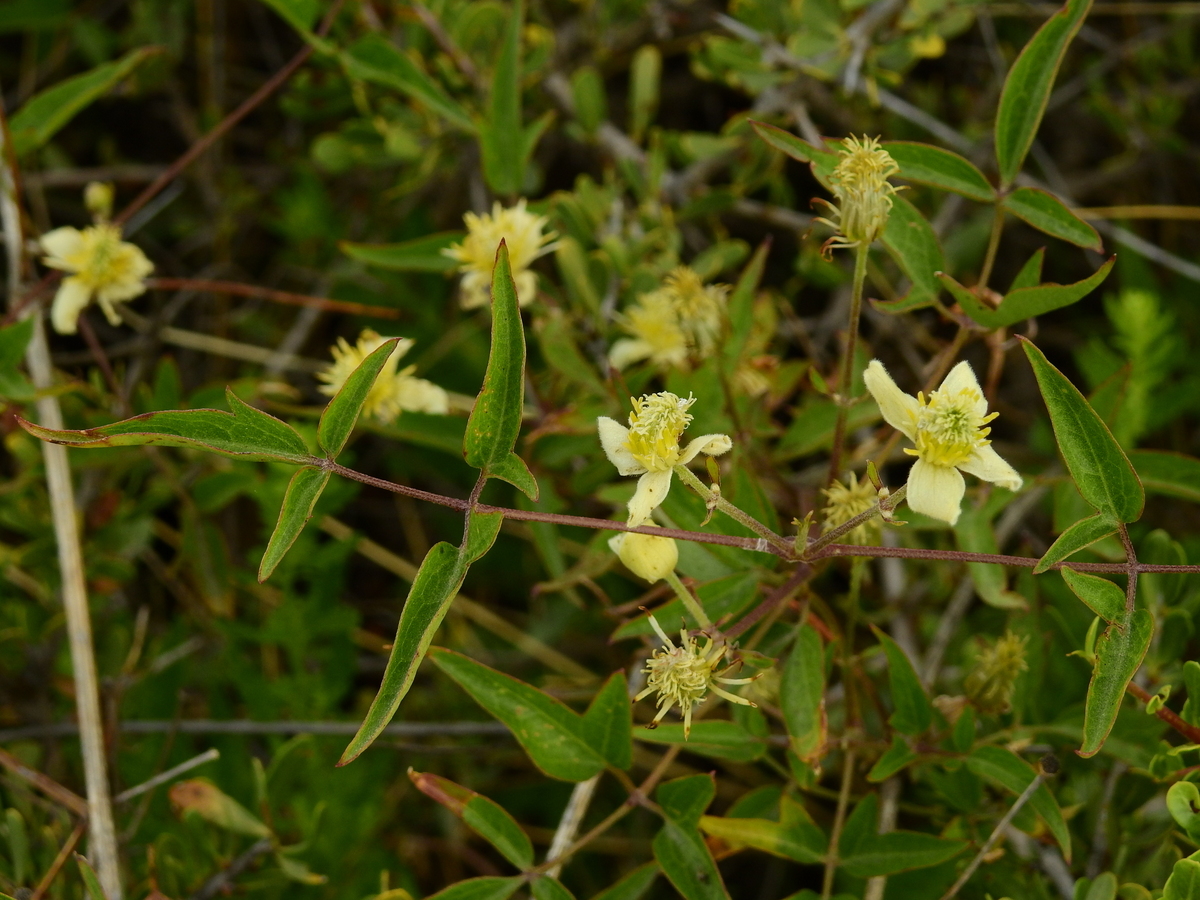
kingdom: Plantae
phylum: Tracheophyta
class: Magnoliopsida
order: Ranunculales
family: Ranunculaceae
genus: Clematis
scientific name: Clematis montevidensis
